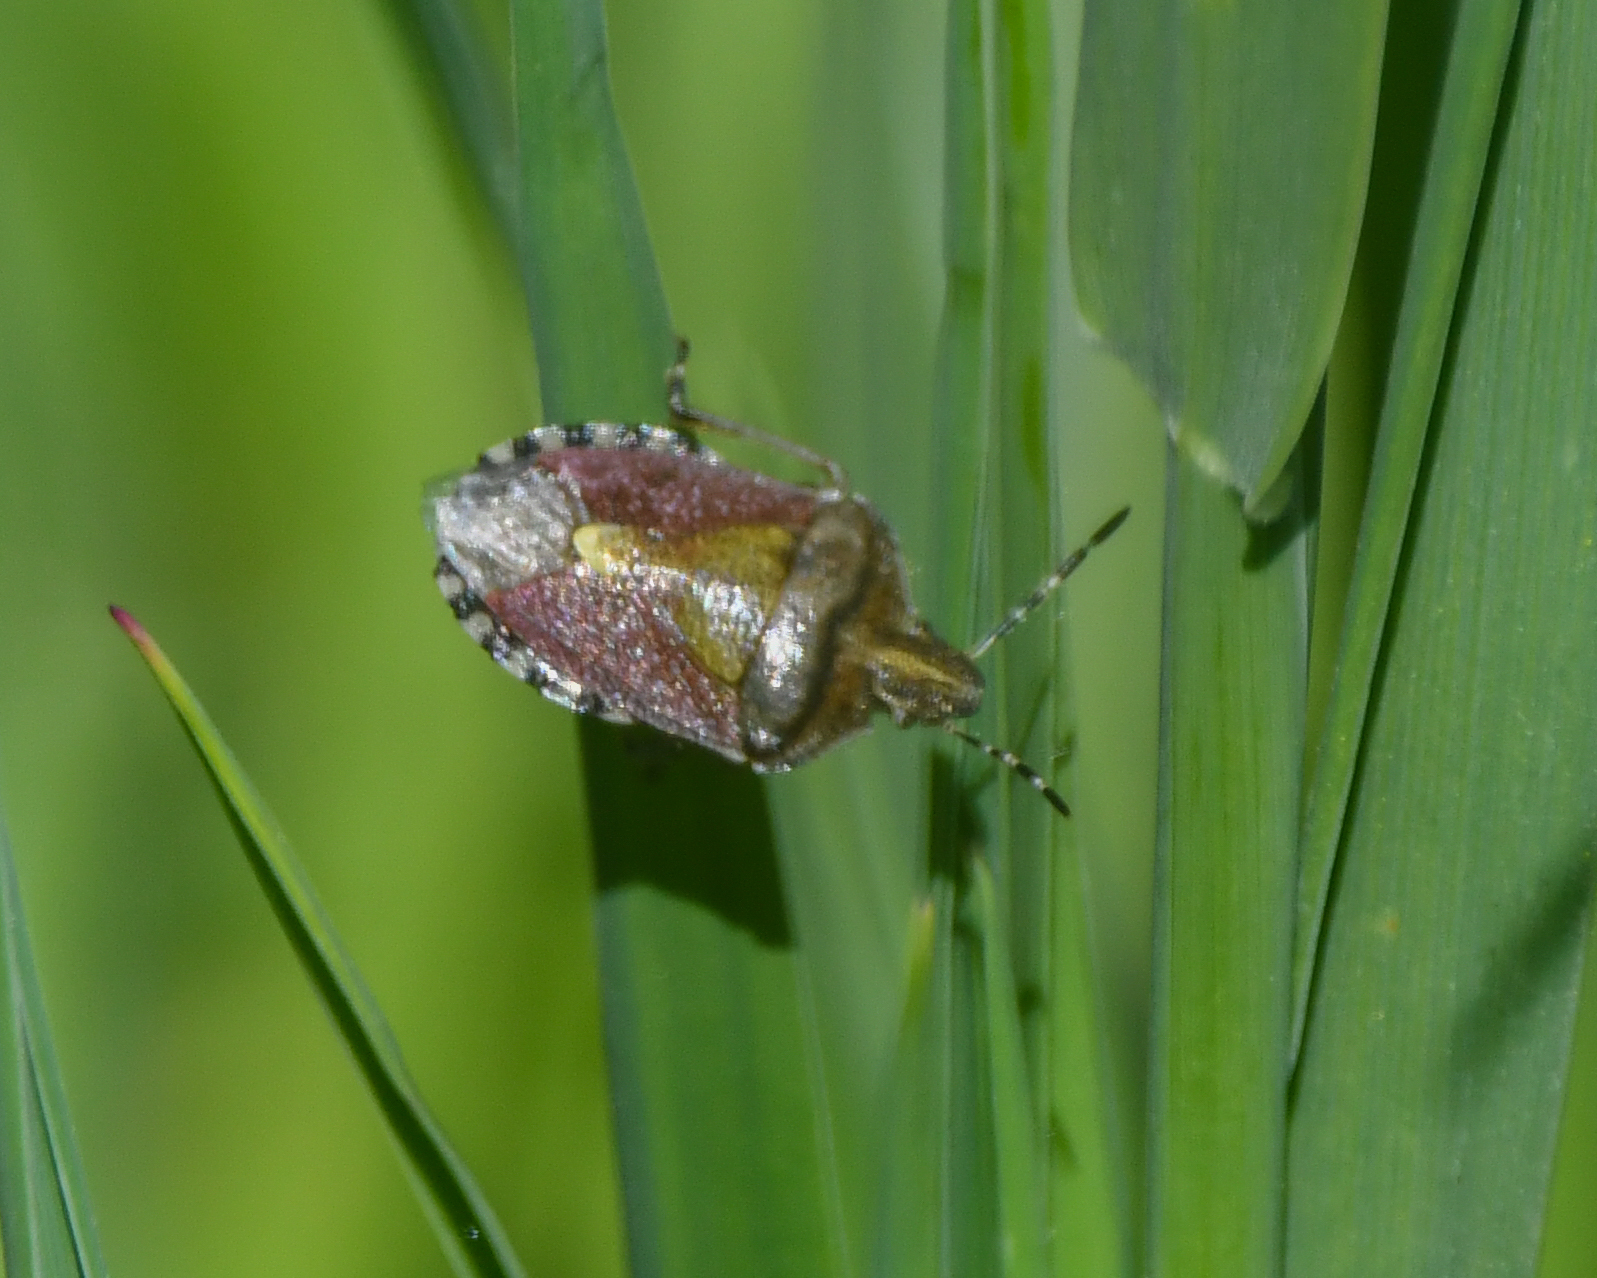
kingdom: Animalia
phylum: Arthropoda
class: Insecta
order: Hemiptera
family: Pentatomidae
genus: Dolycoris
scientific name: Dolycoris baccarum
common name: Sloe bug
